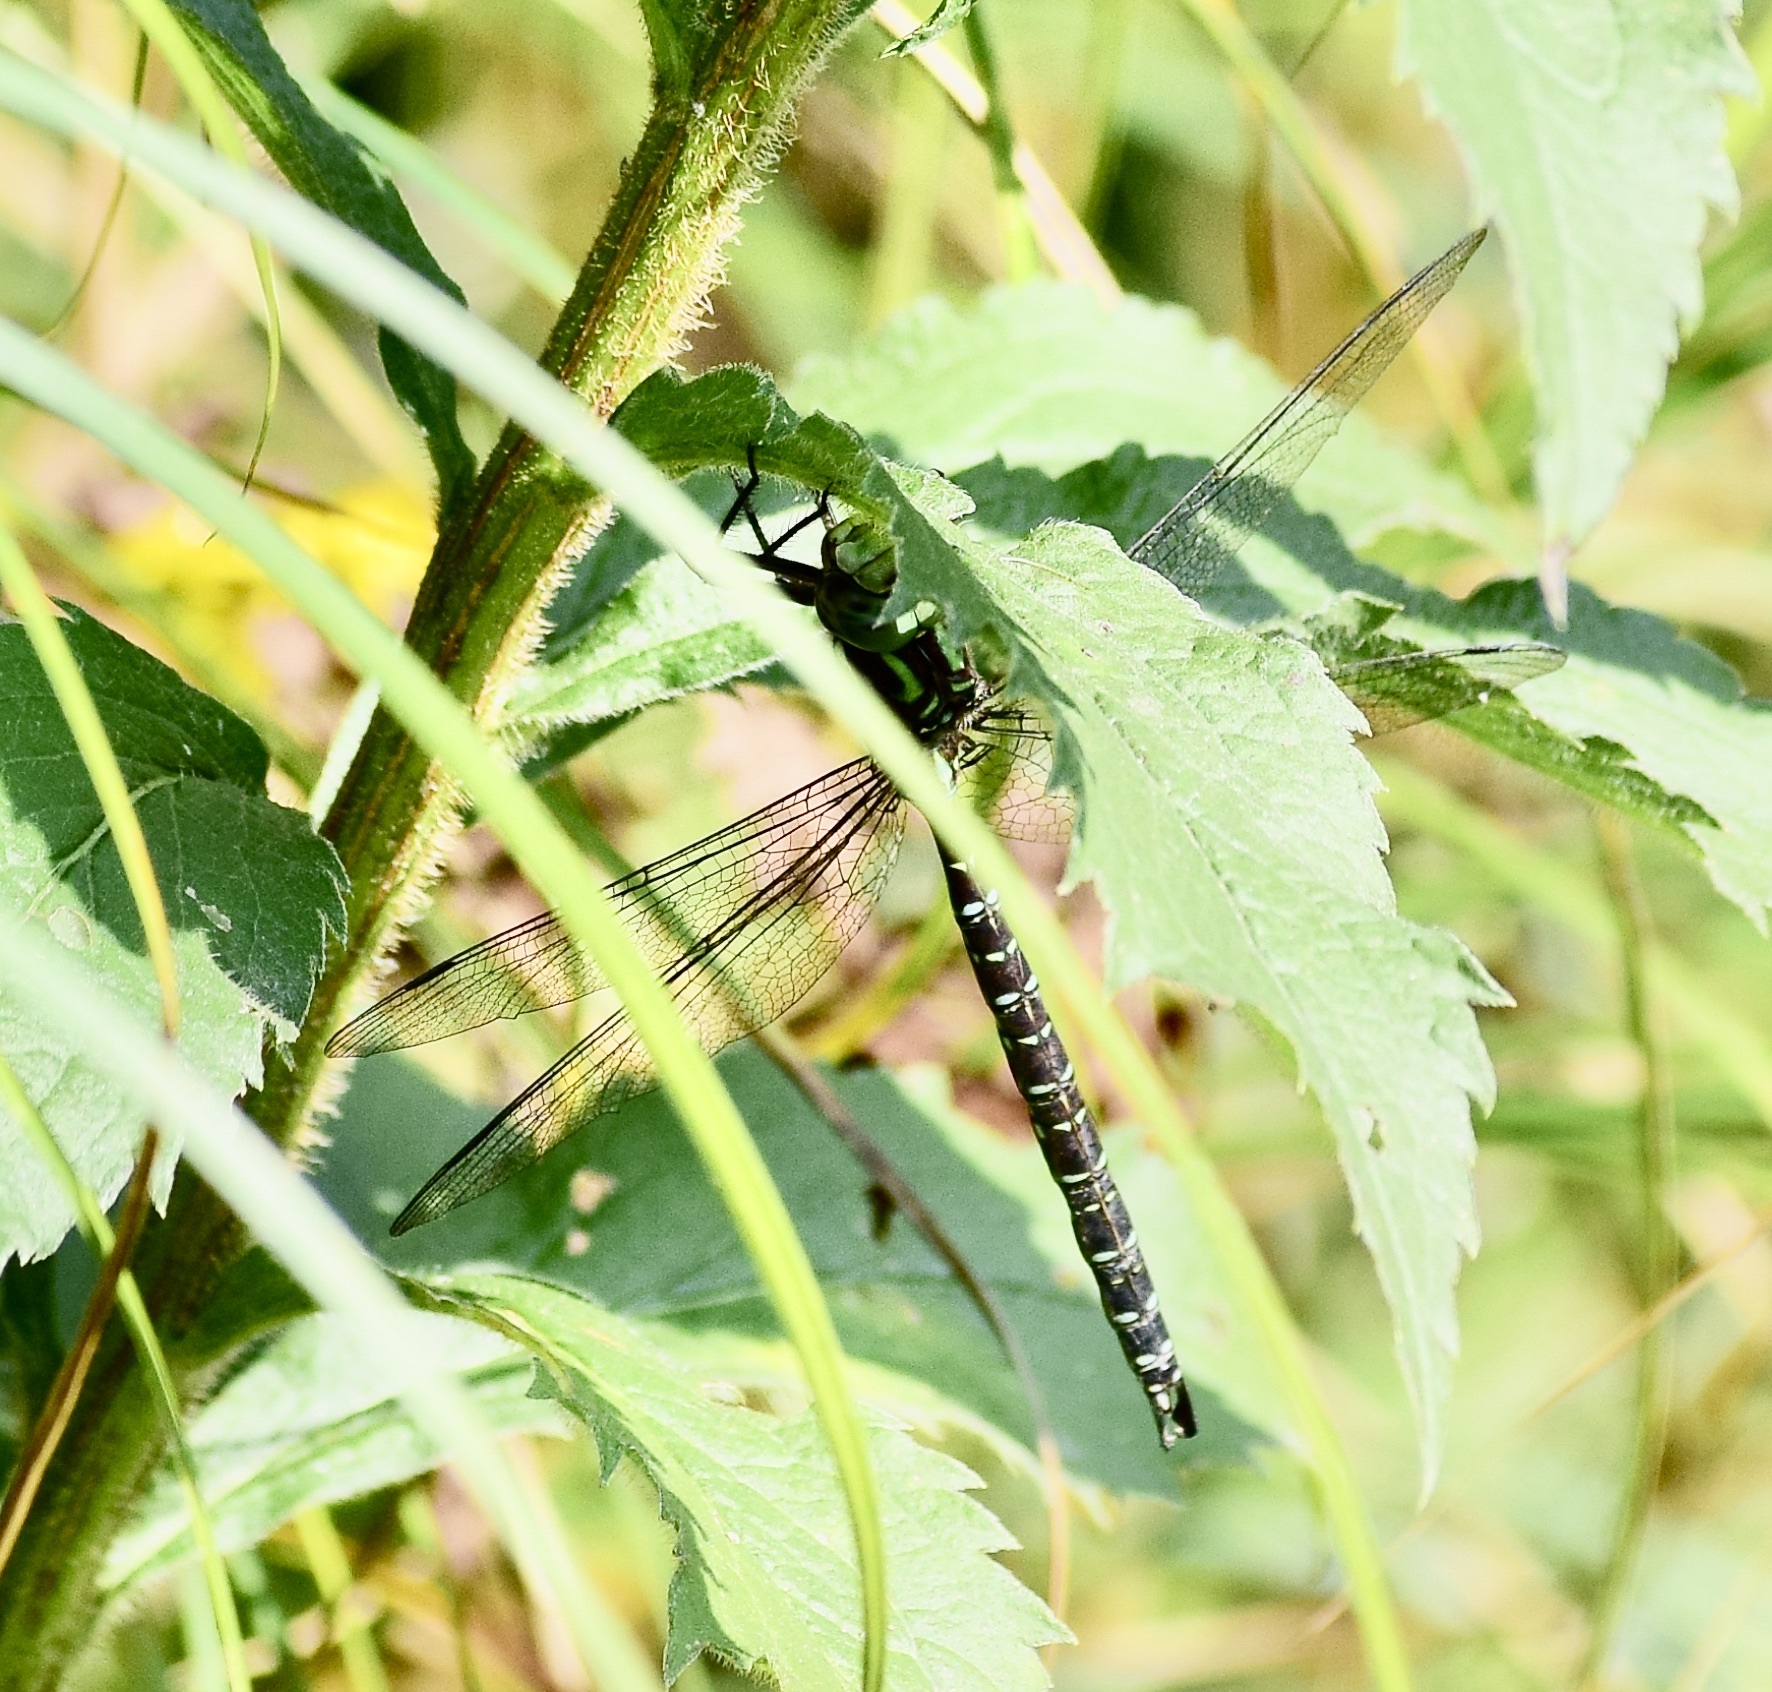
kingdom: Animalia
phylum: Arthropoda
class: Insecta
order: Odonata
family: Aeshnidae
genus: Aeshna
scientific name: Aeshna umbrosa
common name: Shadow darner
